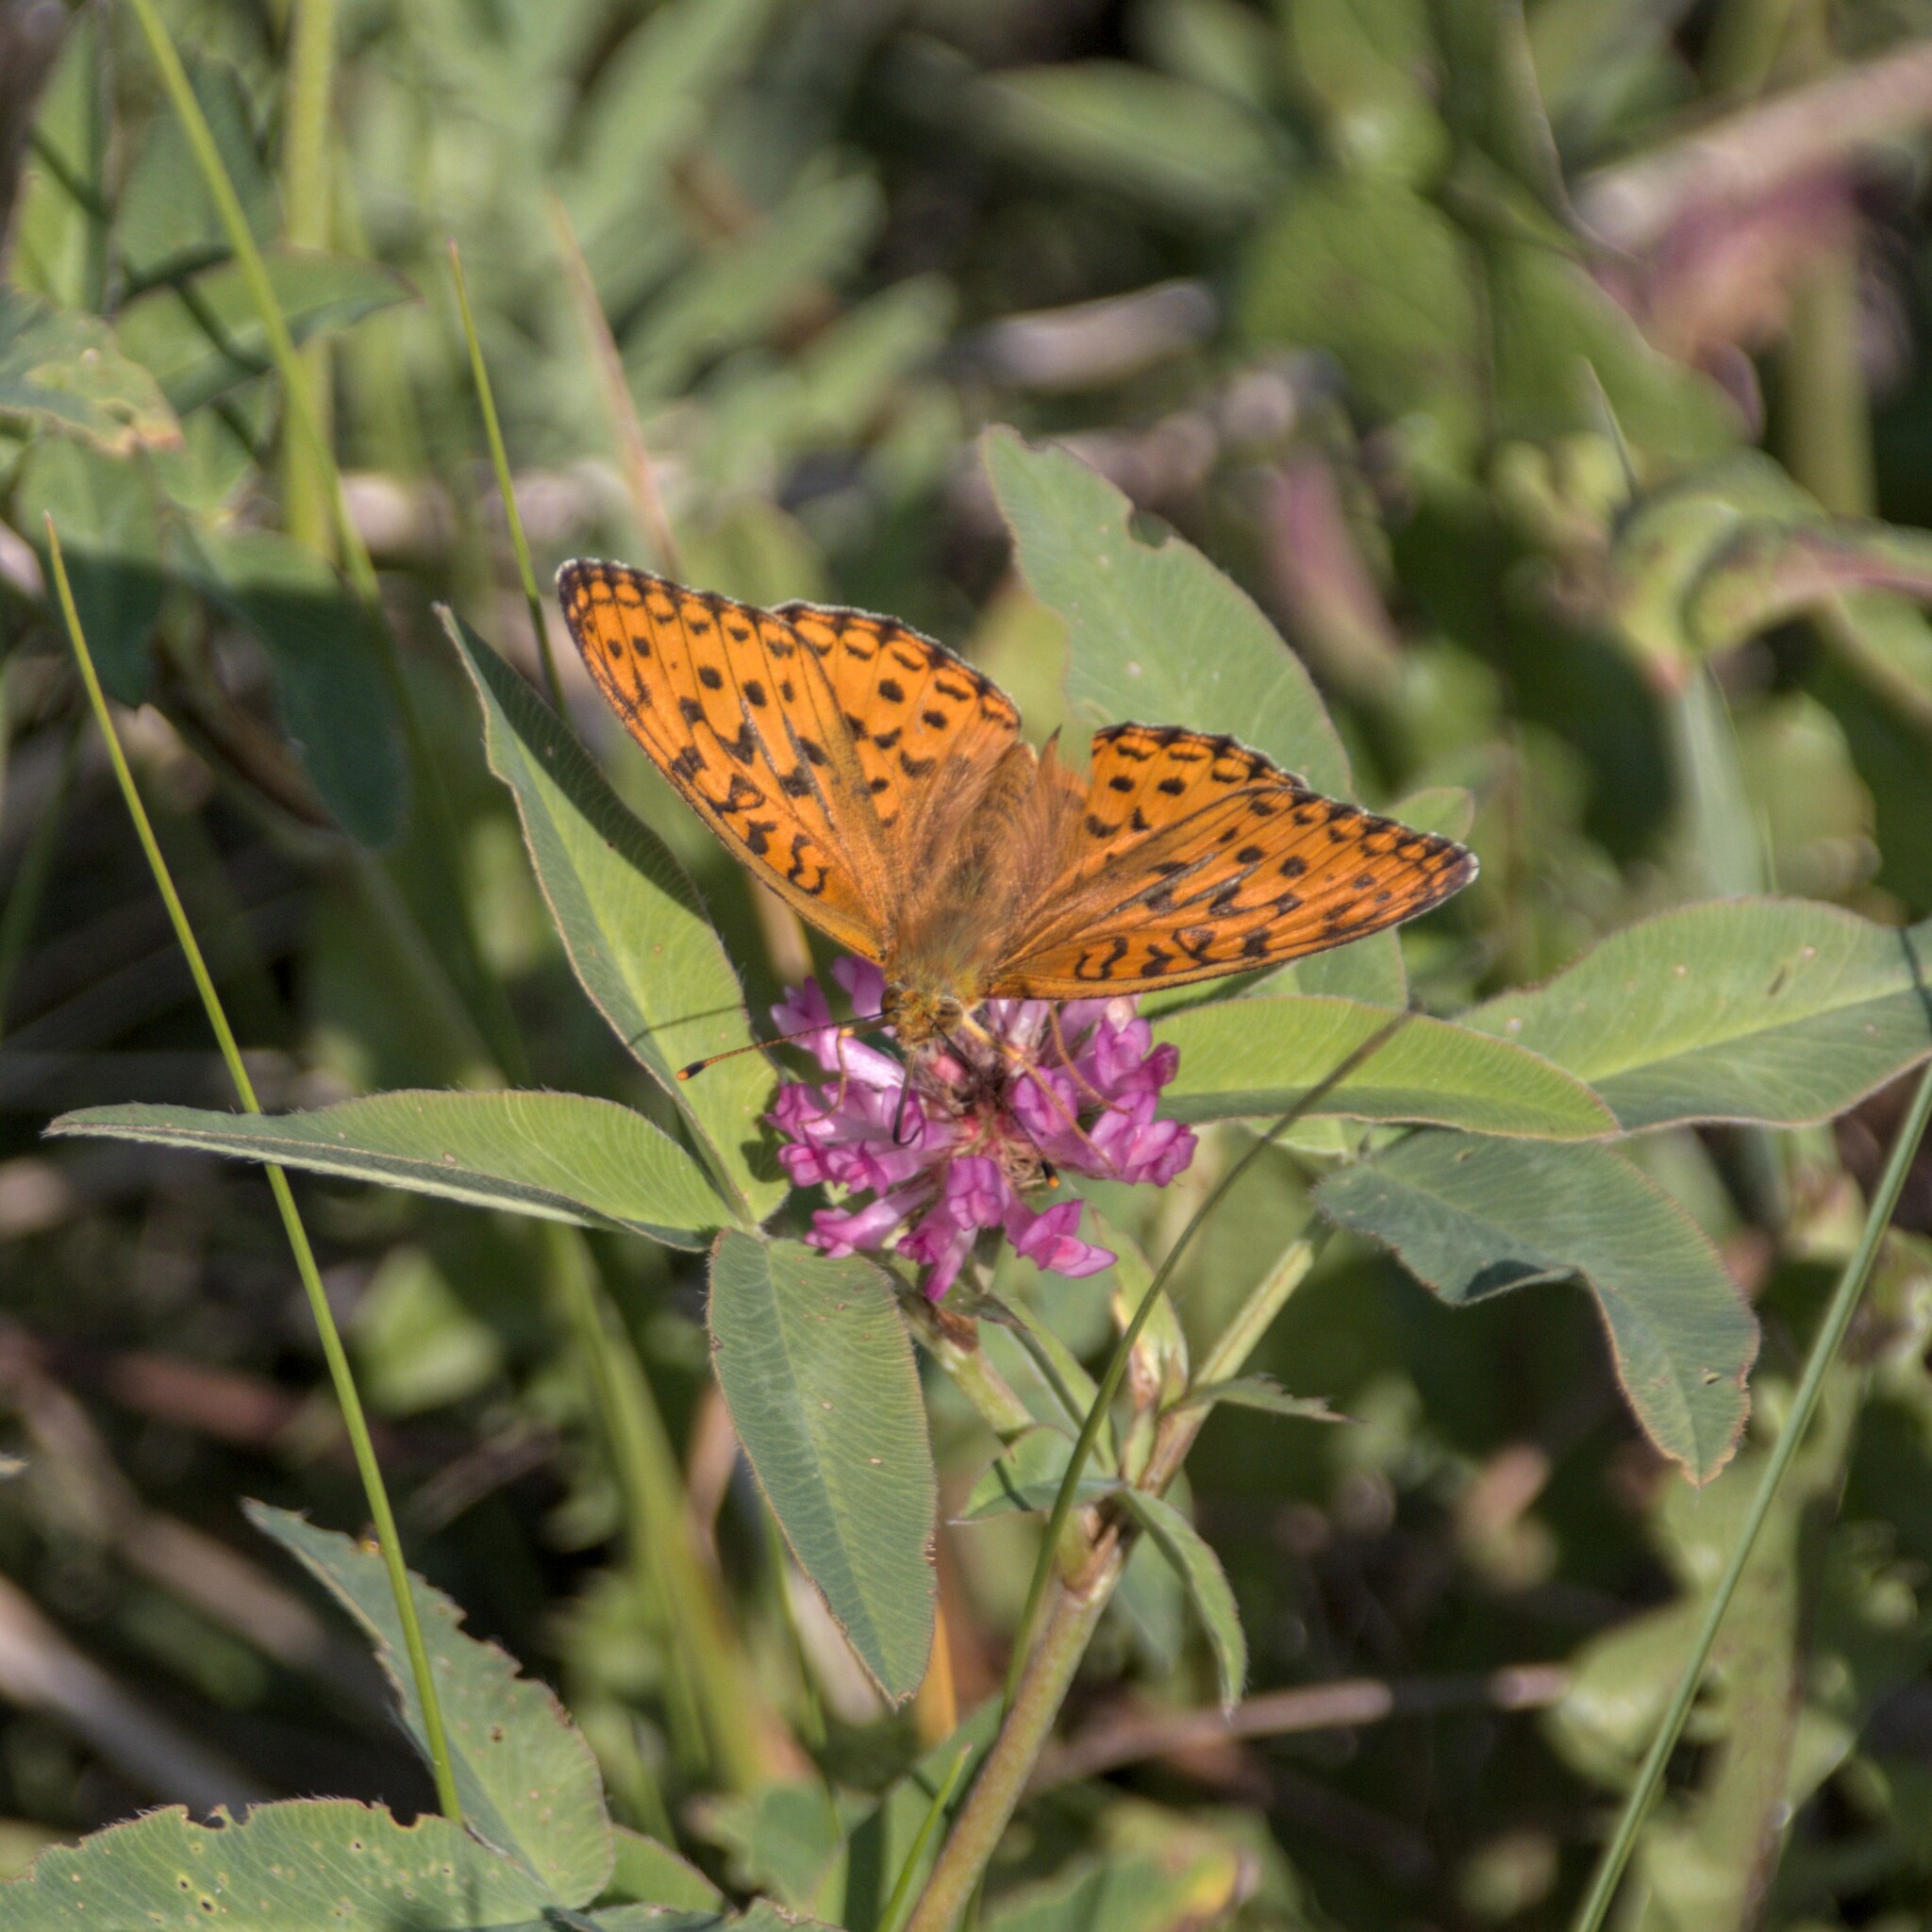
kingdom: Animalia
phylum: Arthropoda
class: Insecta
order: Lepidoptera
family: Nymphalidae
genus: Fabriciana
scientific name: Fabriciana adippe
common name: High brown fritillary
